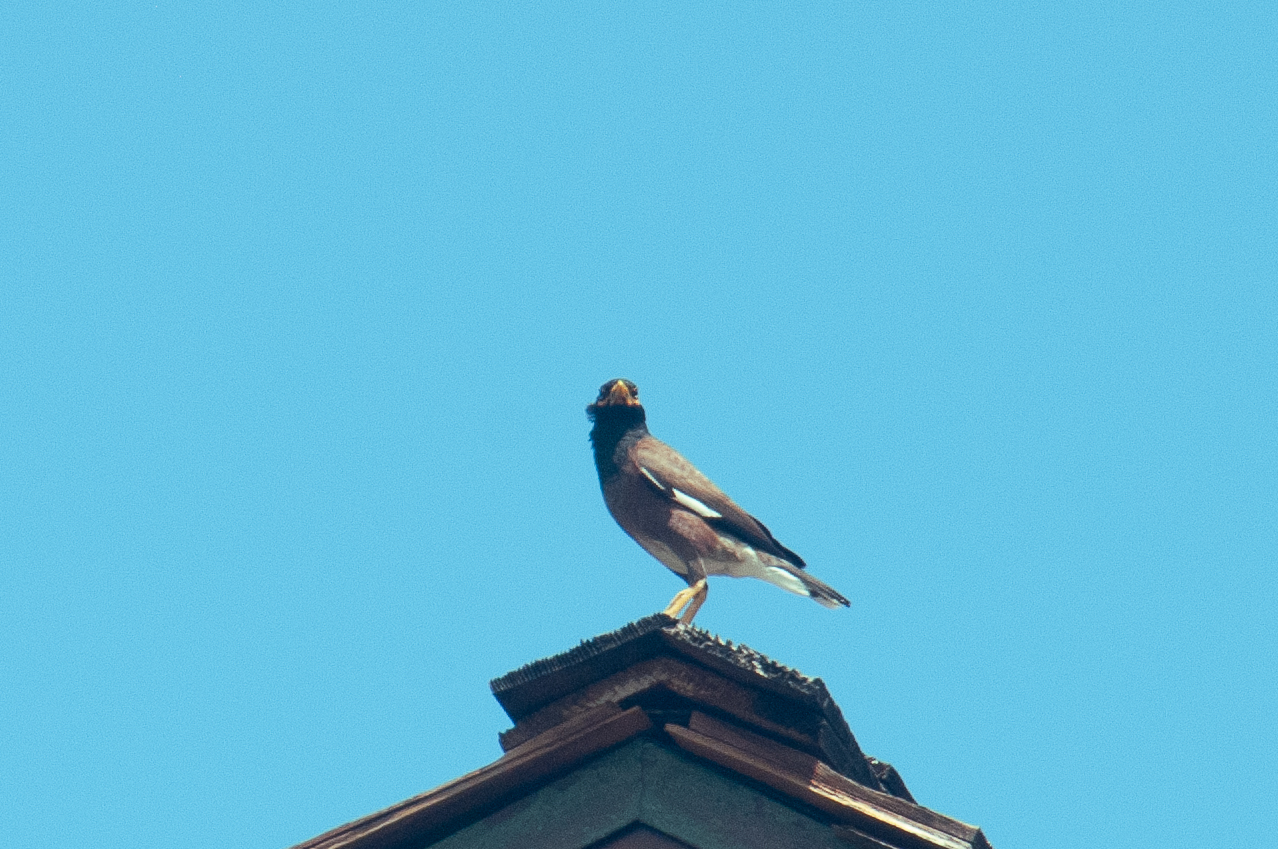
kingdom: Animalia
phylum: Chordata
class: Aves
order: Passeriformes
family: Sturnidae
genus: Acridotheres
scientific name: Acridotheres tristis
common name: Common myna
